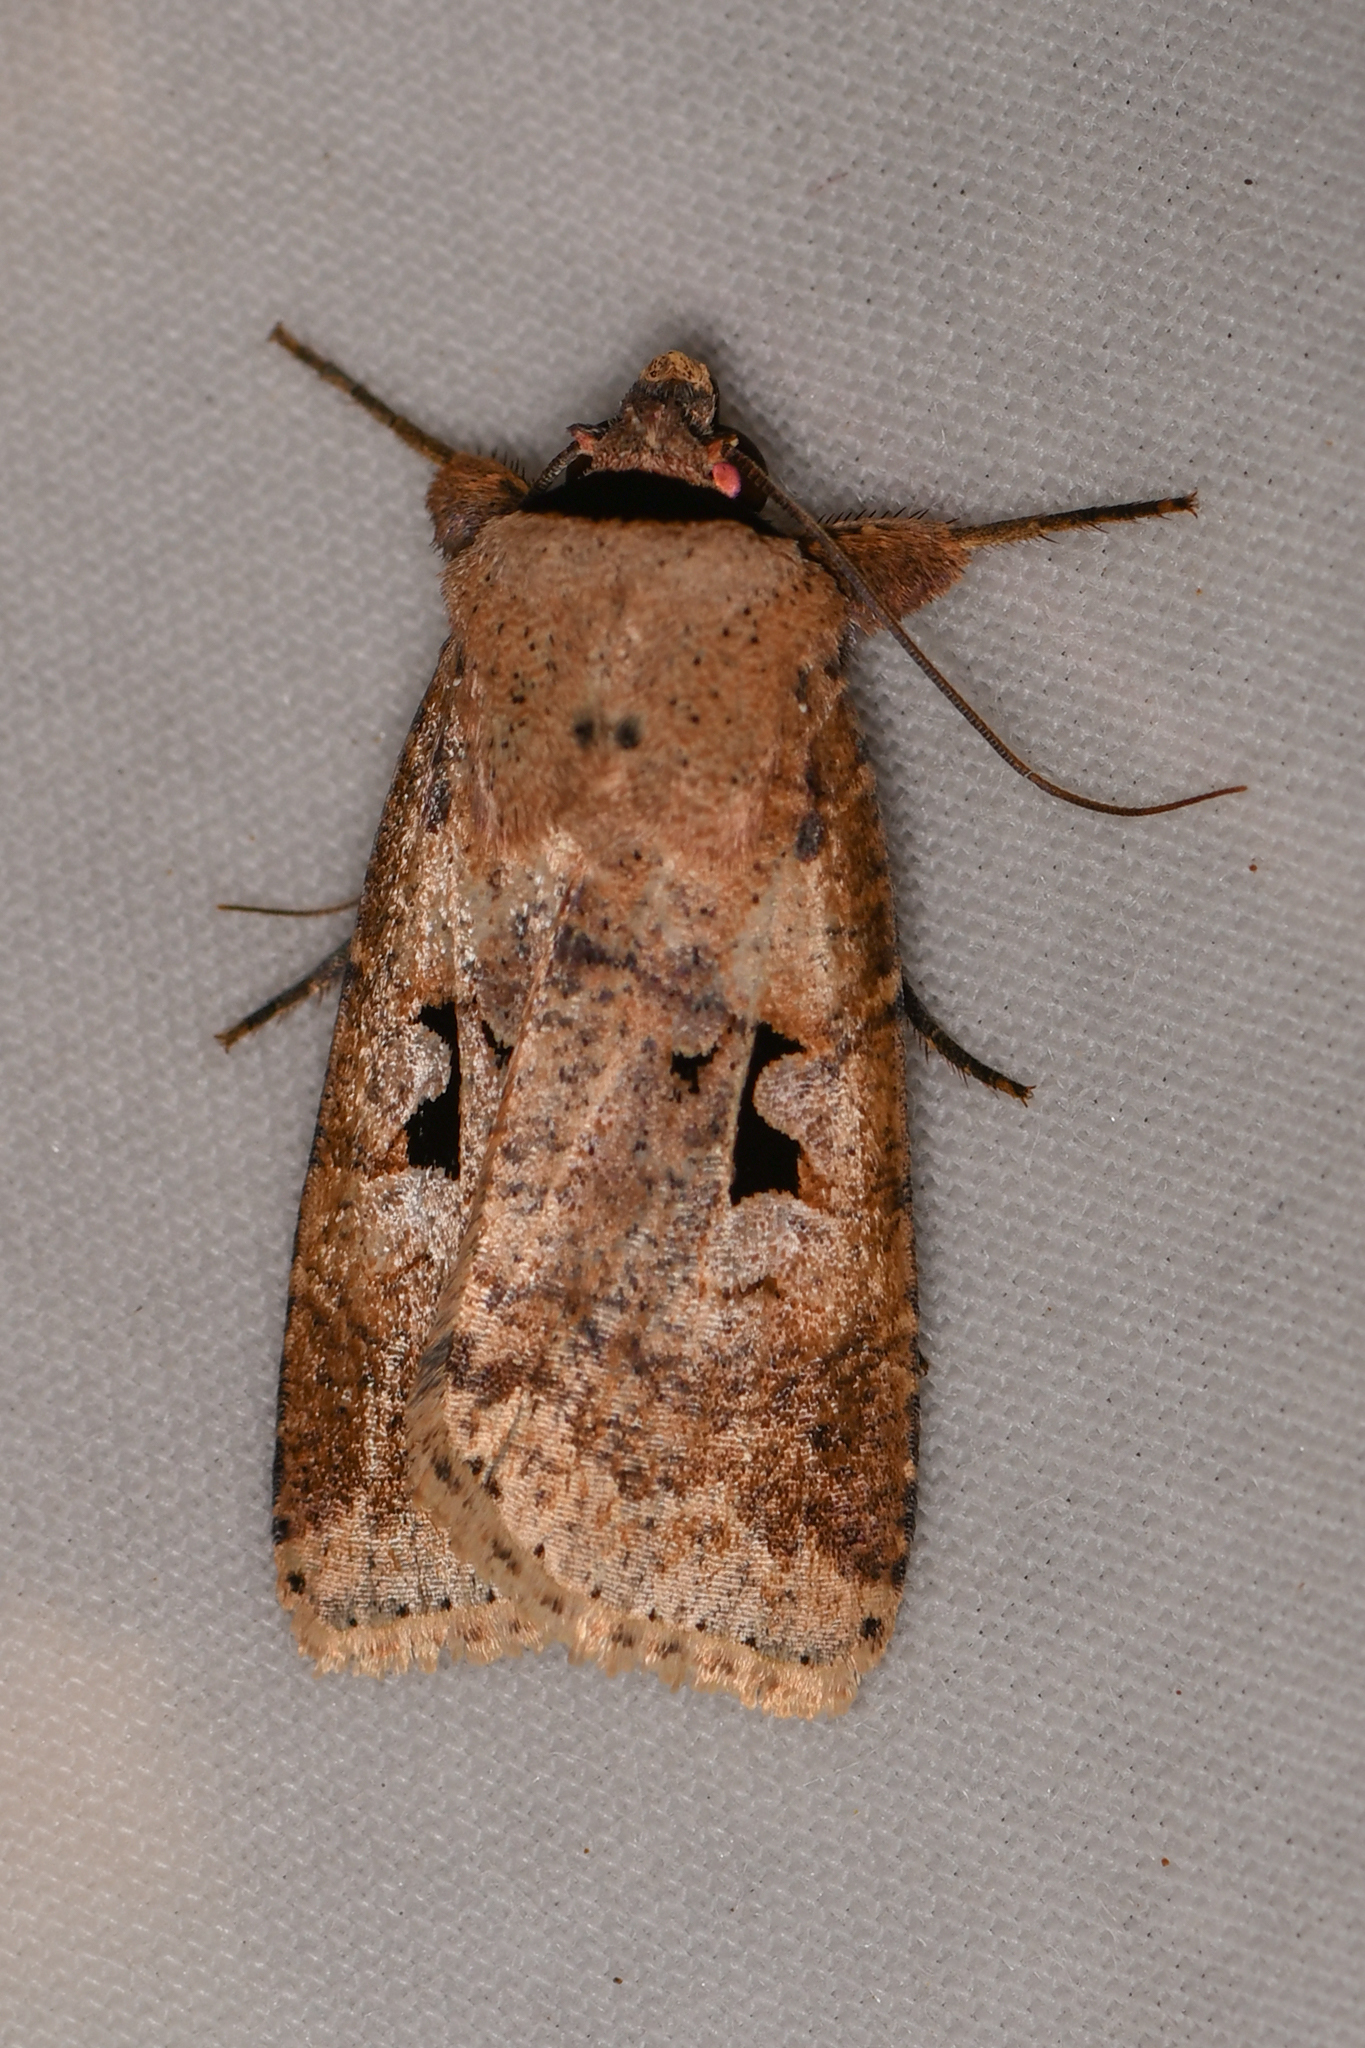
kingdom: Animalia
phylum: Arthropoda
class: Insecta
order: Lepidoptera
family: Noctuidae
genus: Praina
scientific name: Praina
